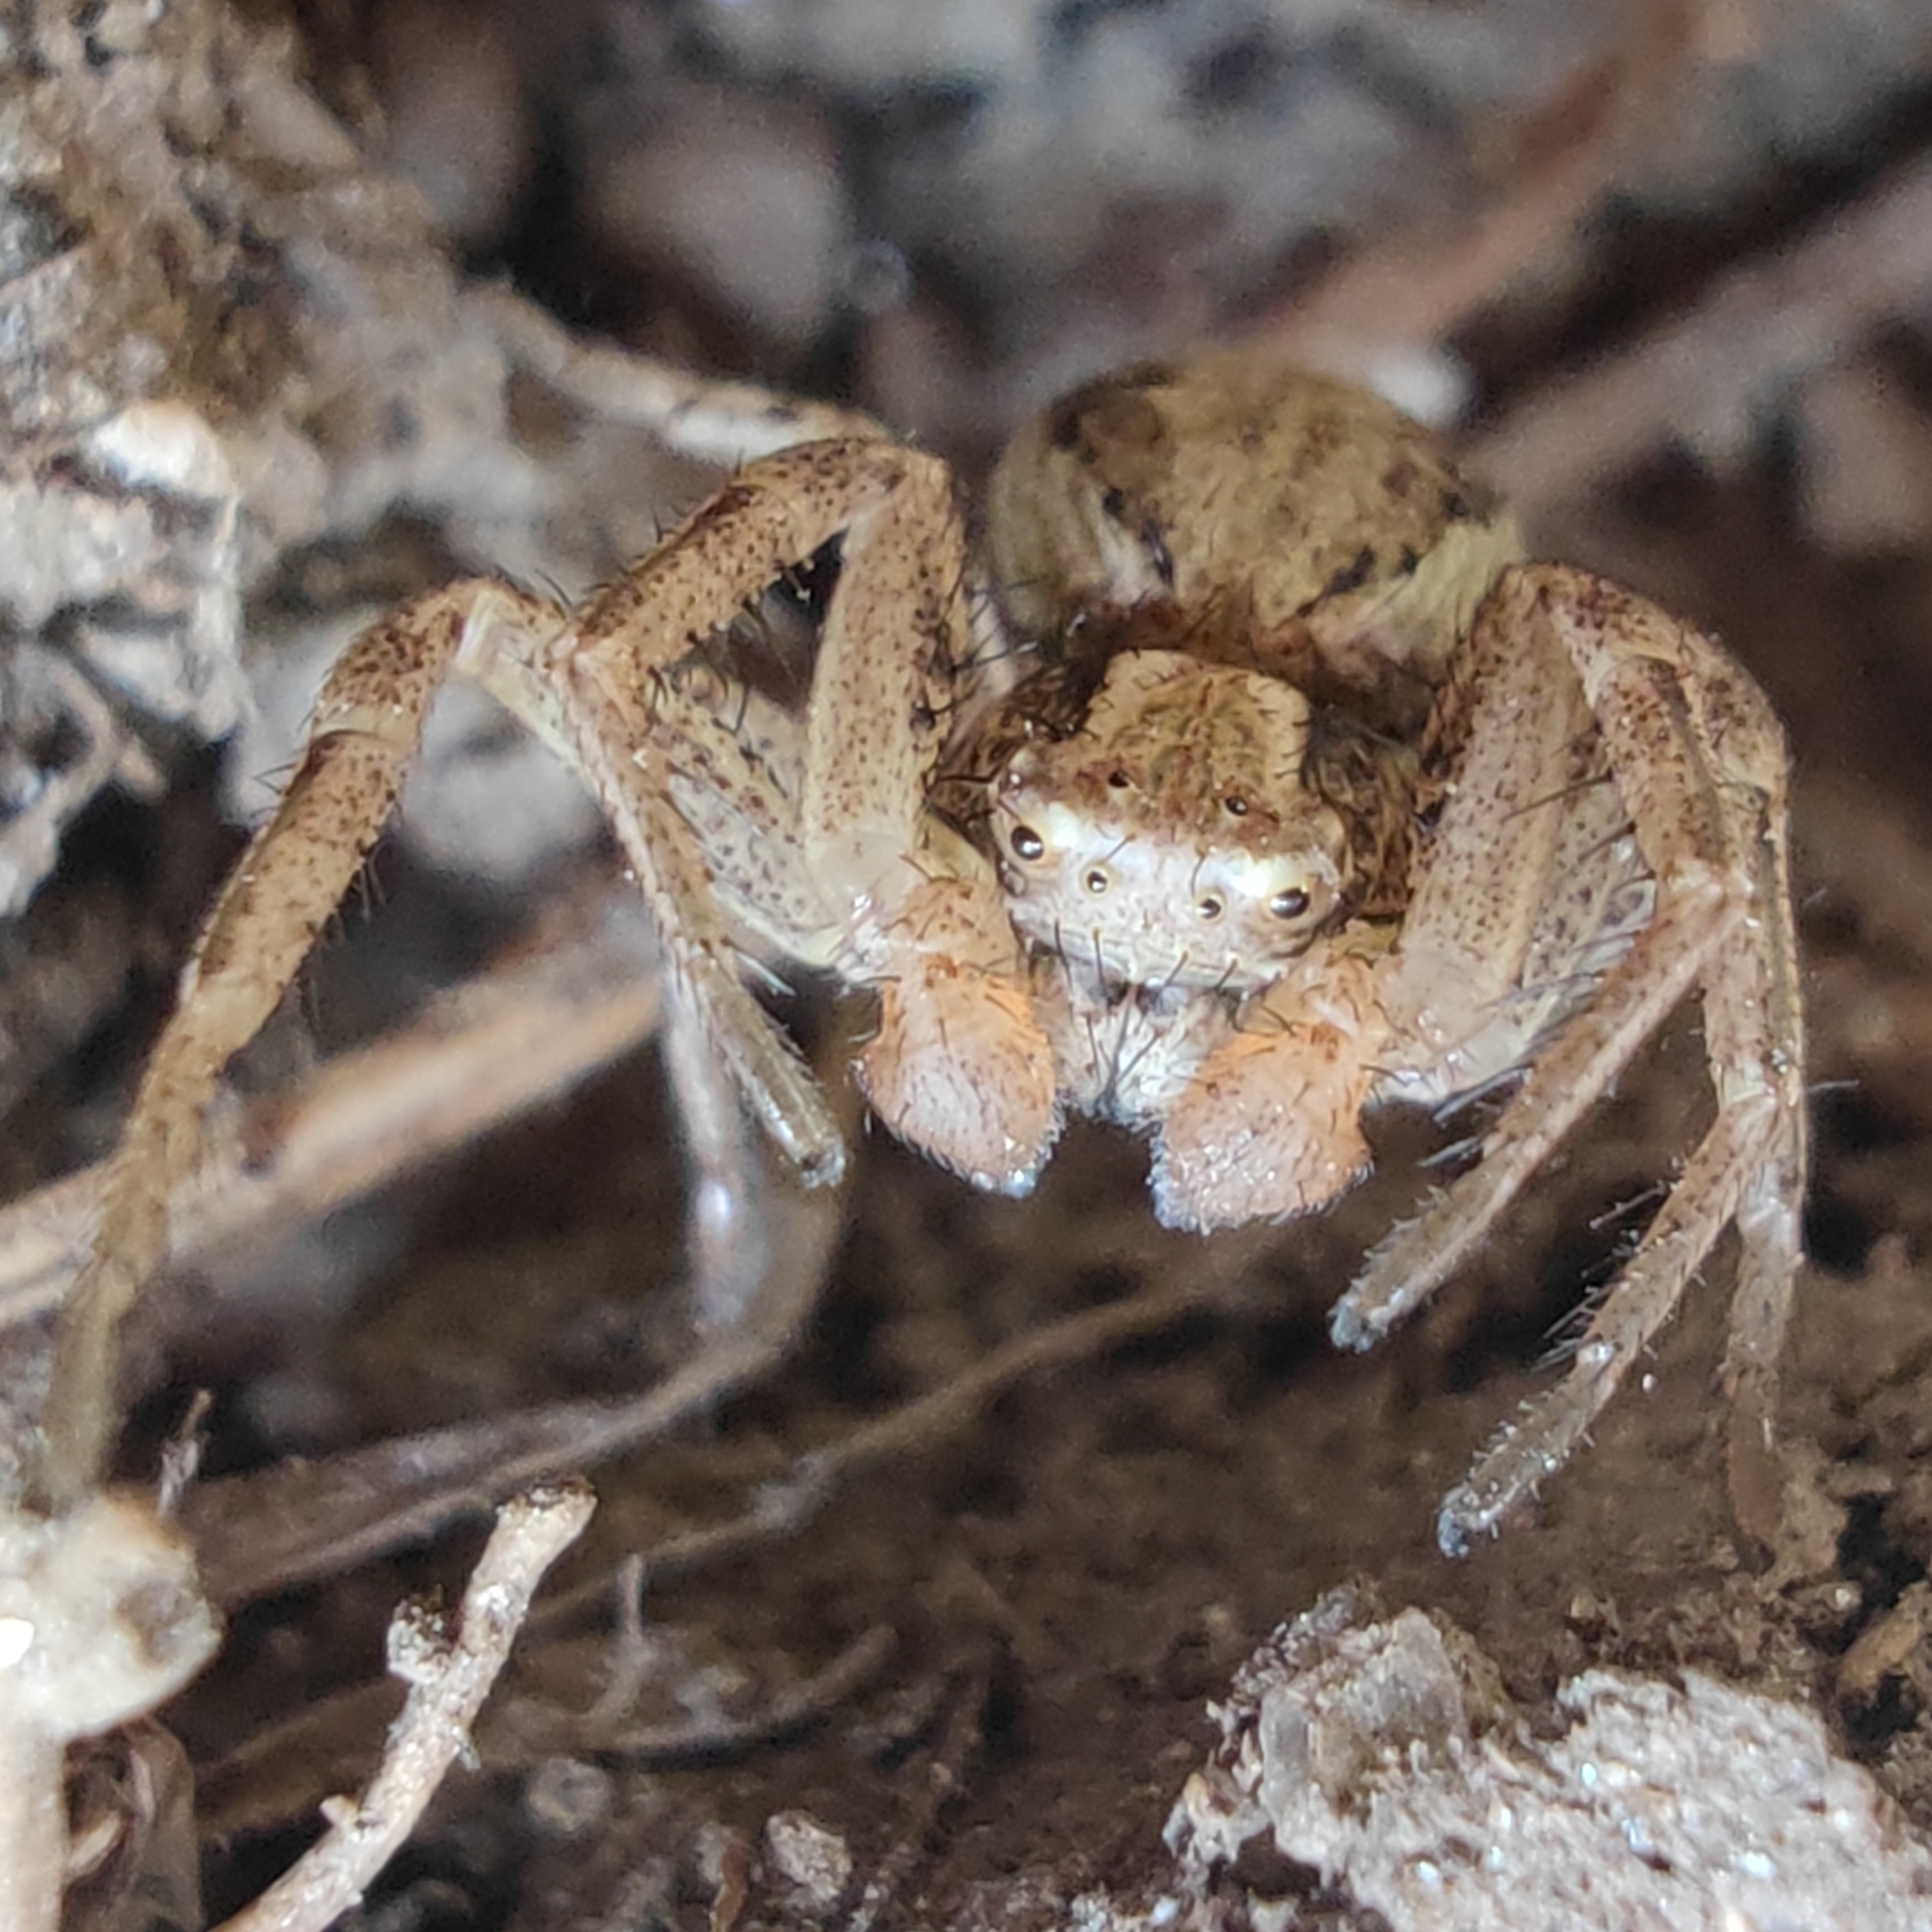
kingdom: Animalia
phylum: Arthropoda
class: Arachnida
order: Araneae
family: Thomisidae
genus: Xysticus
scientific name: Xysticus
